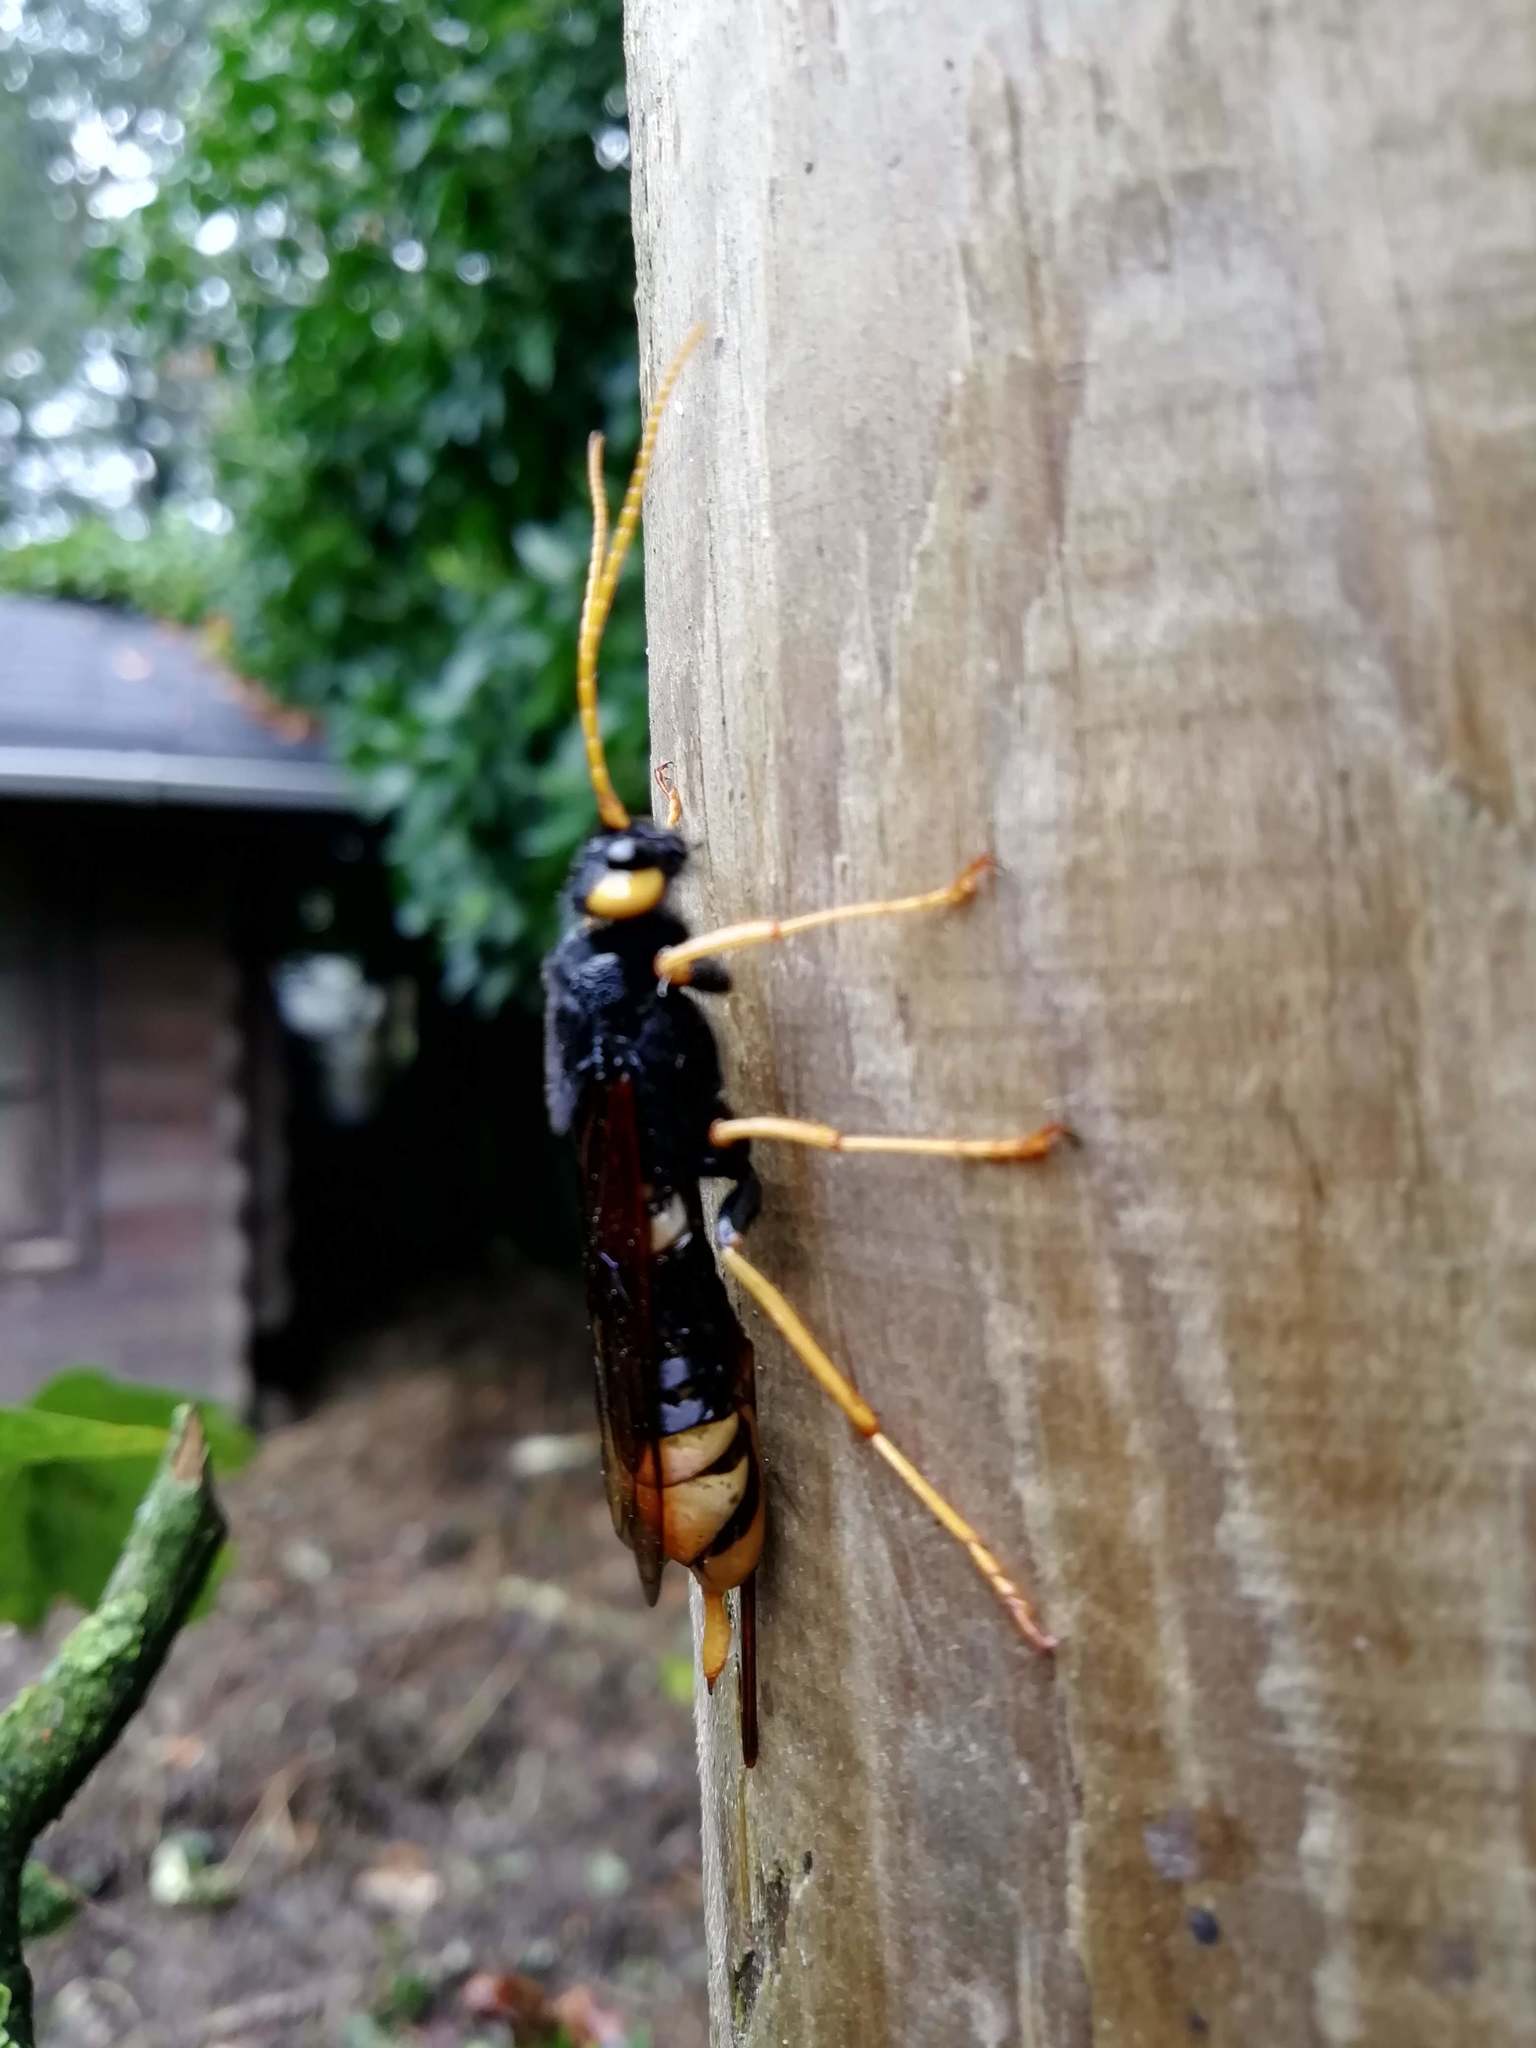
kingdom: Animalia
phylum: Arthropoda
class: Insecta
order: Hymenoptera
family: Siricidae
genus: Urocerus
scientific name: Urocerus gigas
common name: Giant woodwasp
